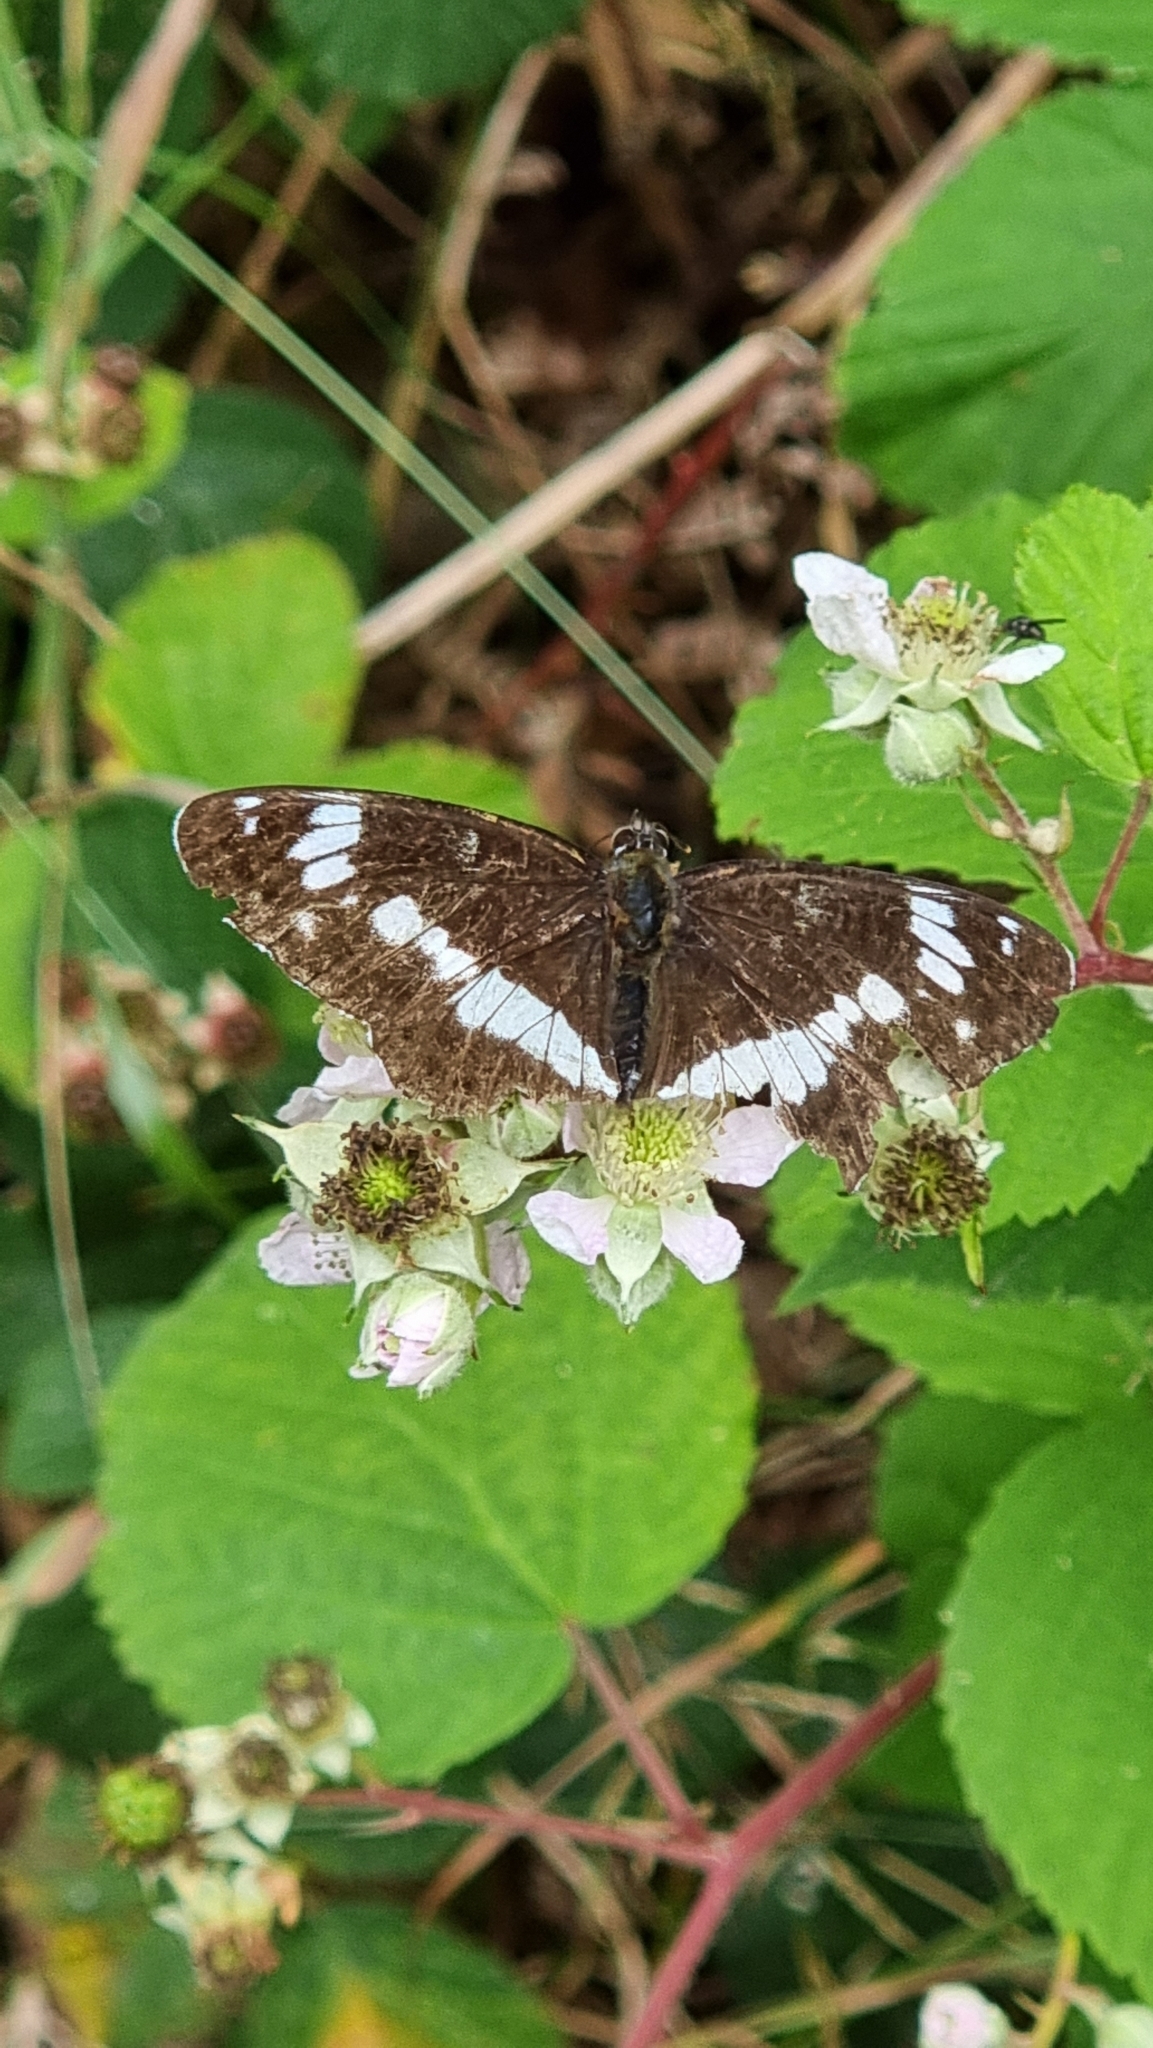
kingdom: Animalia
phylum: Arthropoda
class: Insecta
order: Lepidoptera
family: Nymphalidae
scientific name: Nymphalidae
